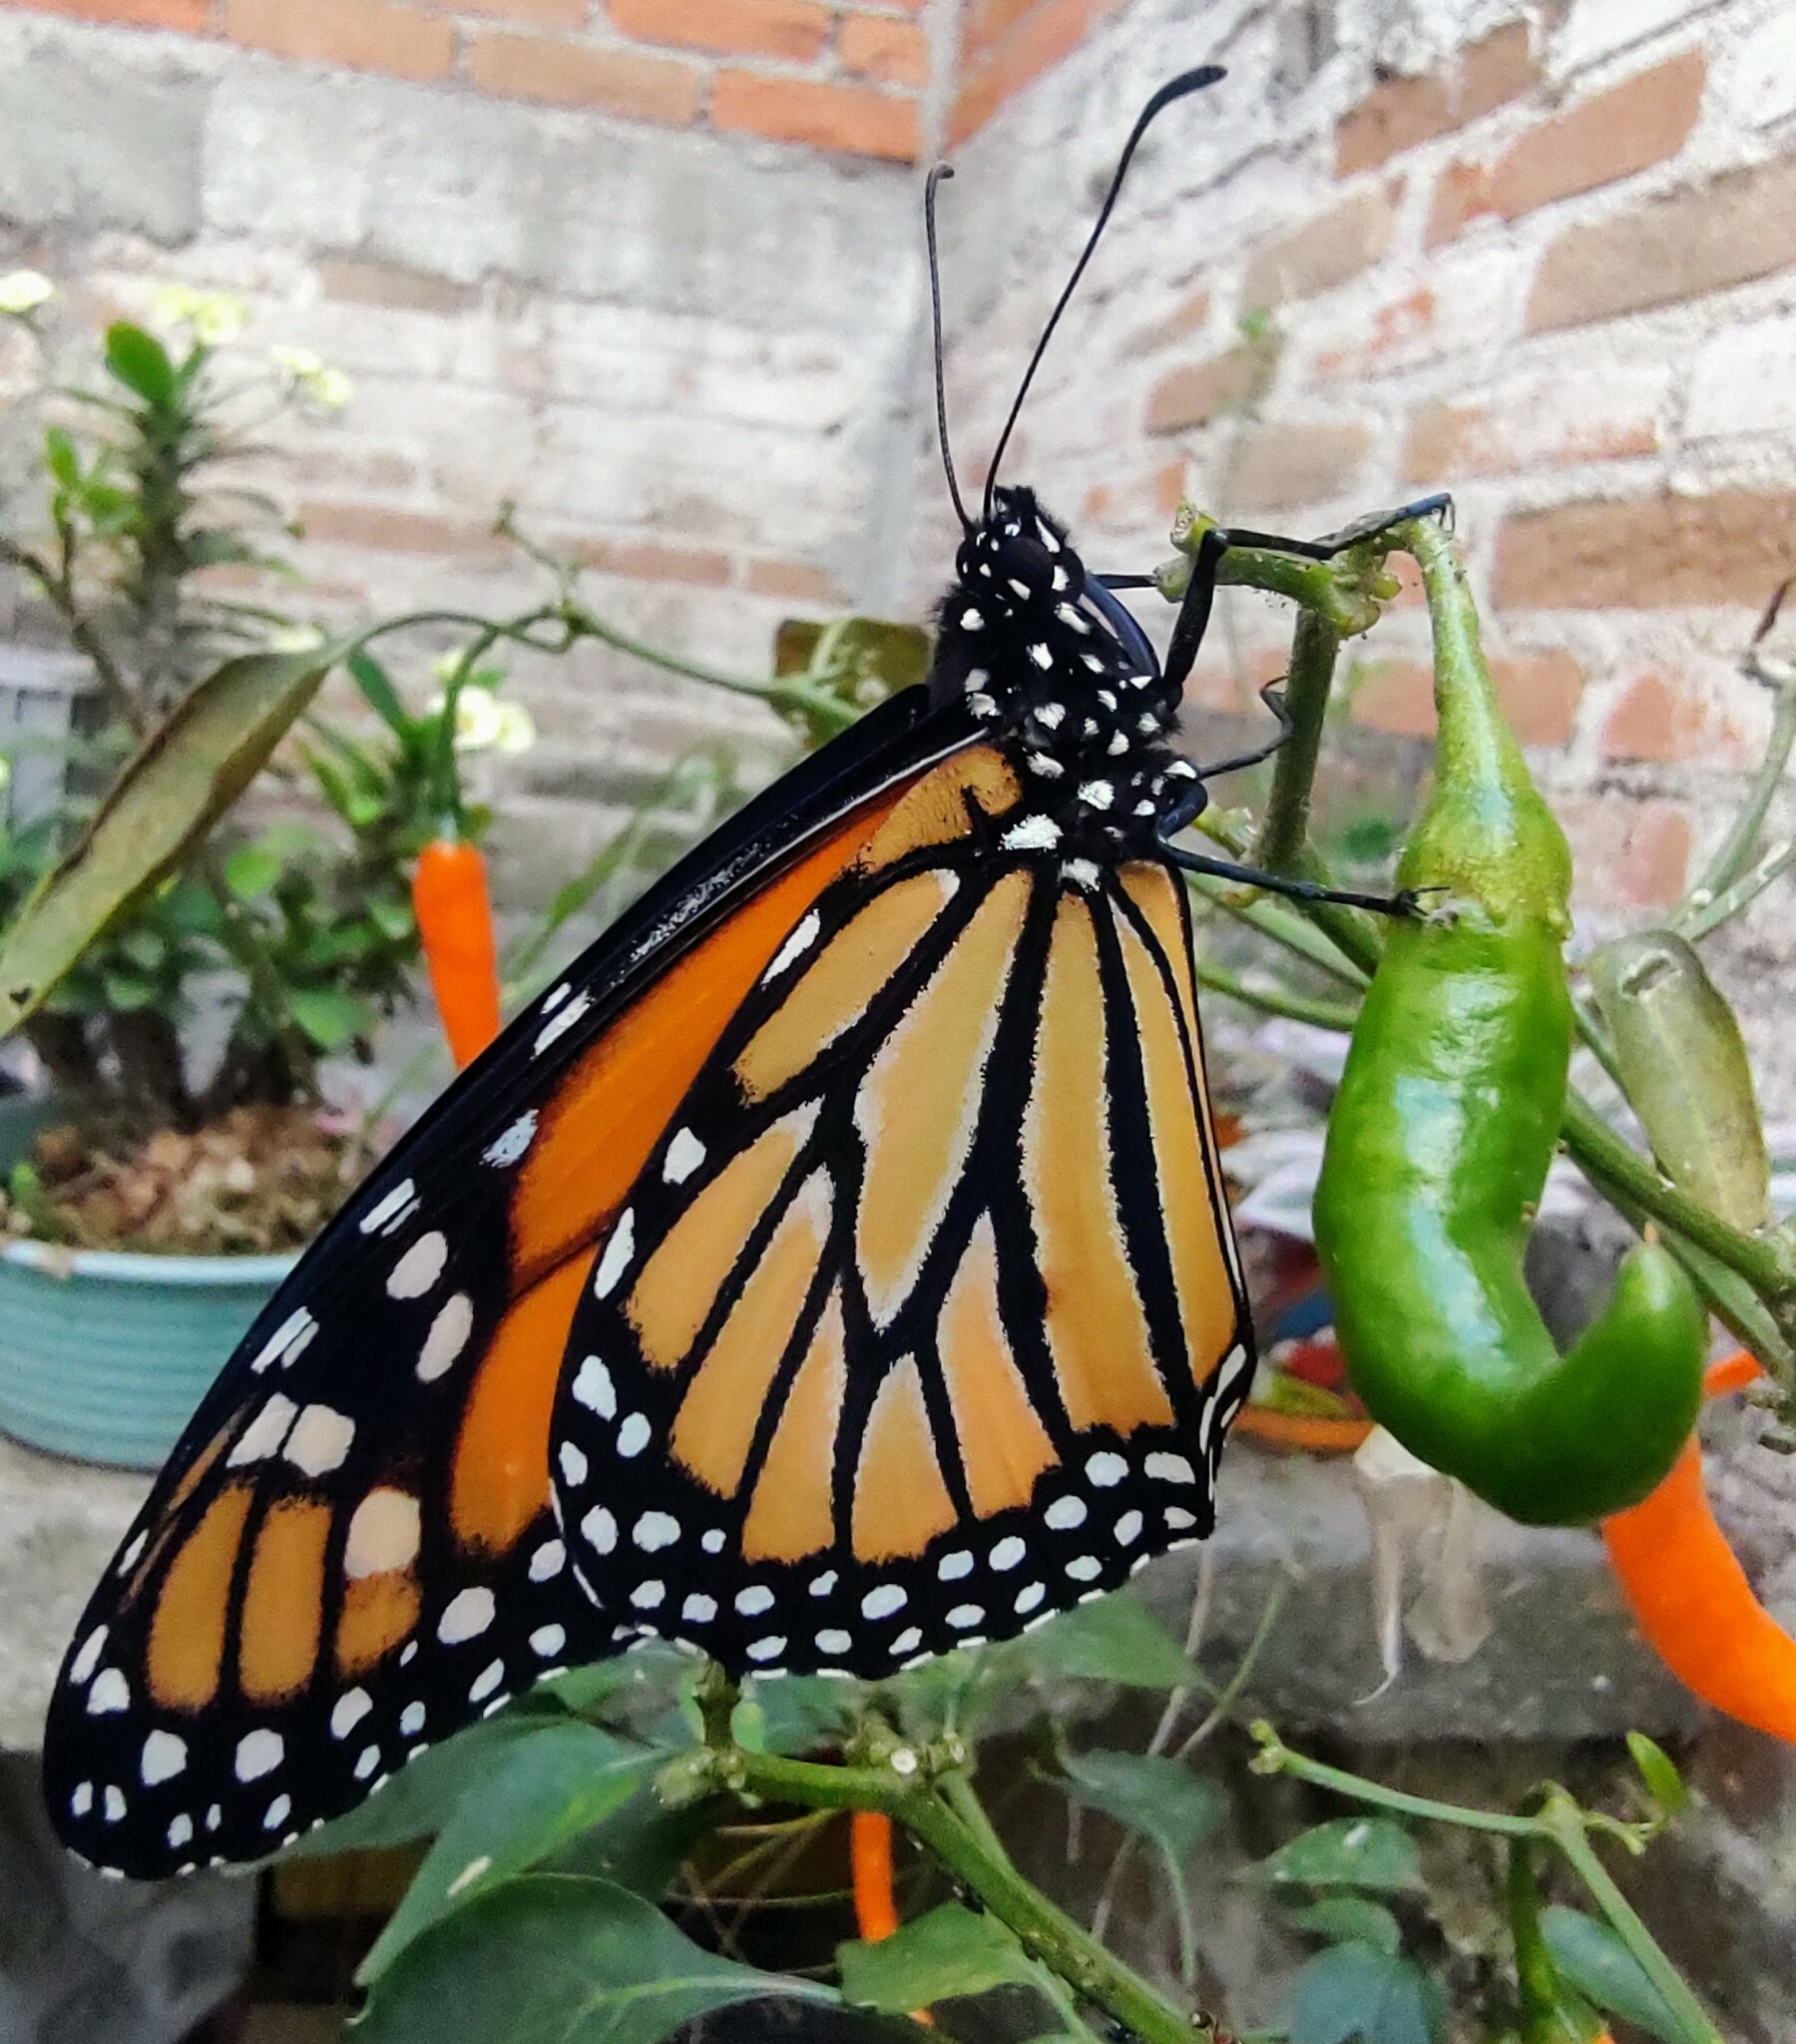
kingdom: Animalia
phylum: Arthropoda
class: Insecta
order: Lepidoptera
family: Nymphalidae
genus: Danaus
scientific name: Danaus plexippus
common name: Monarch
